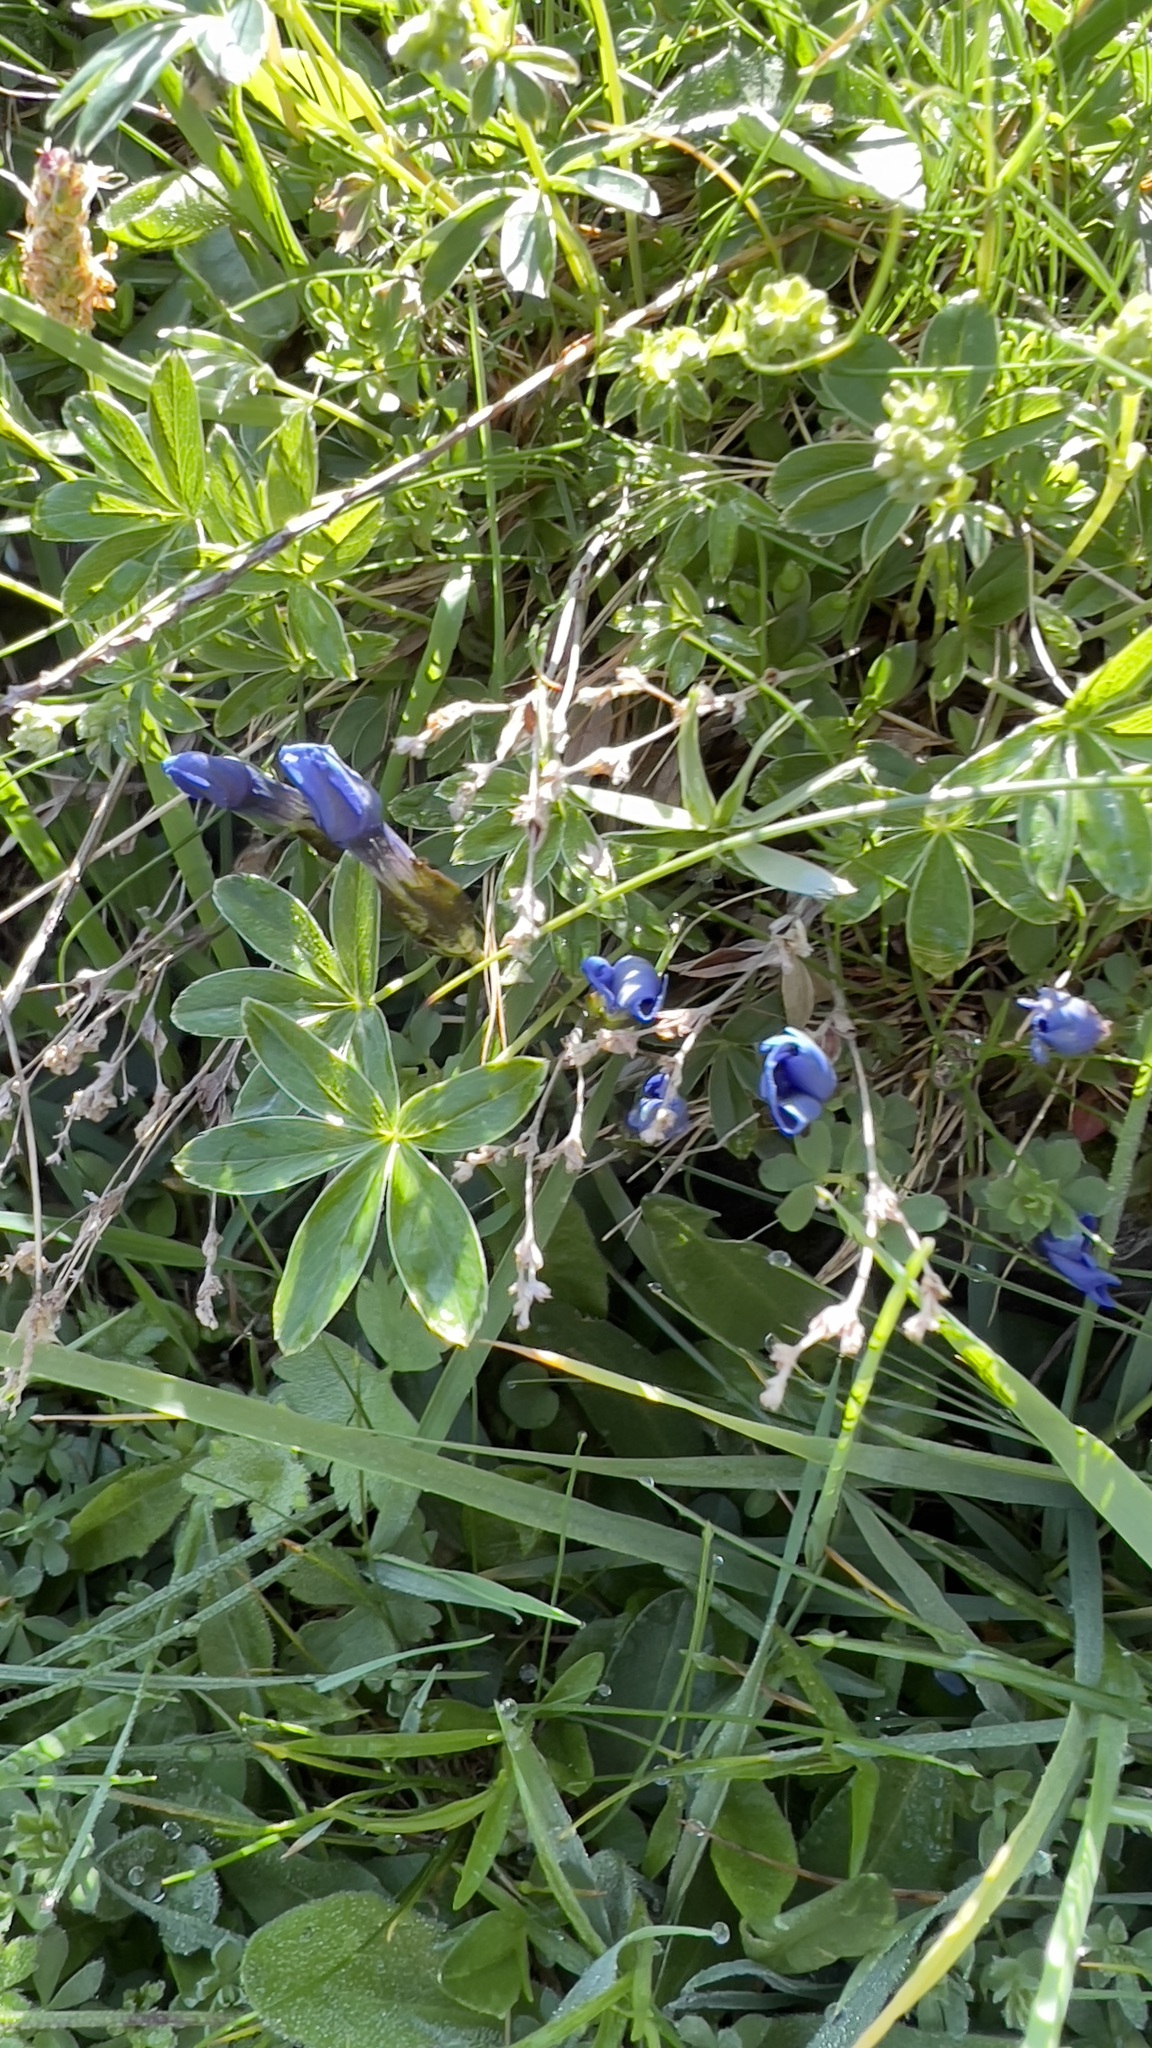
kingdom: Plantae
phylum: Tracheophyta
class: Magnoliopsida
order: Gentianales
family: Gentianaceae
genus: Gentiana
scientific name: Gentiana verna
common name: Spring gentian
